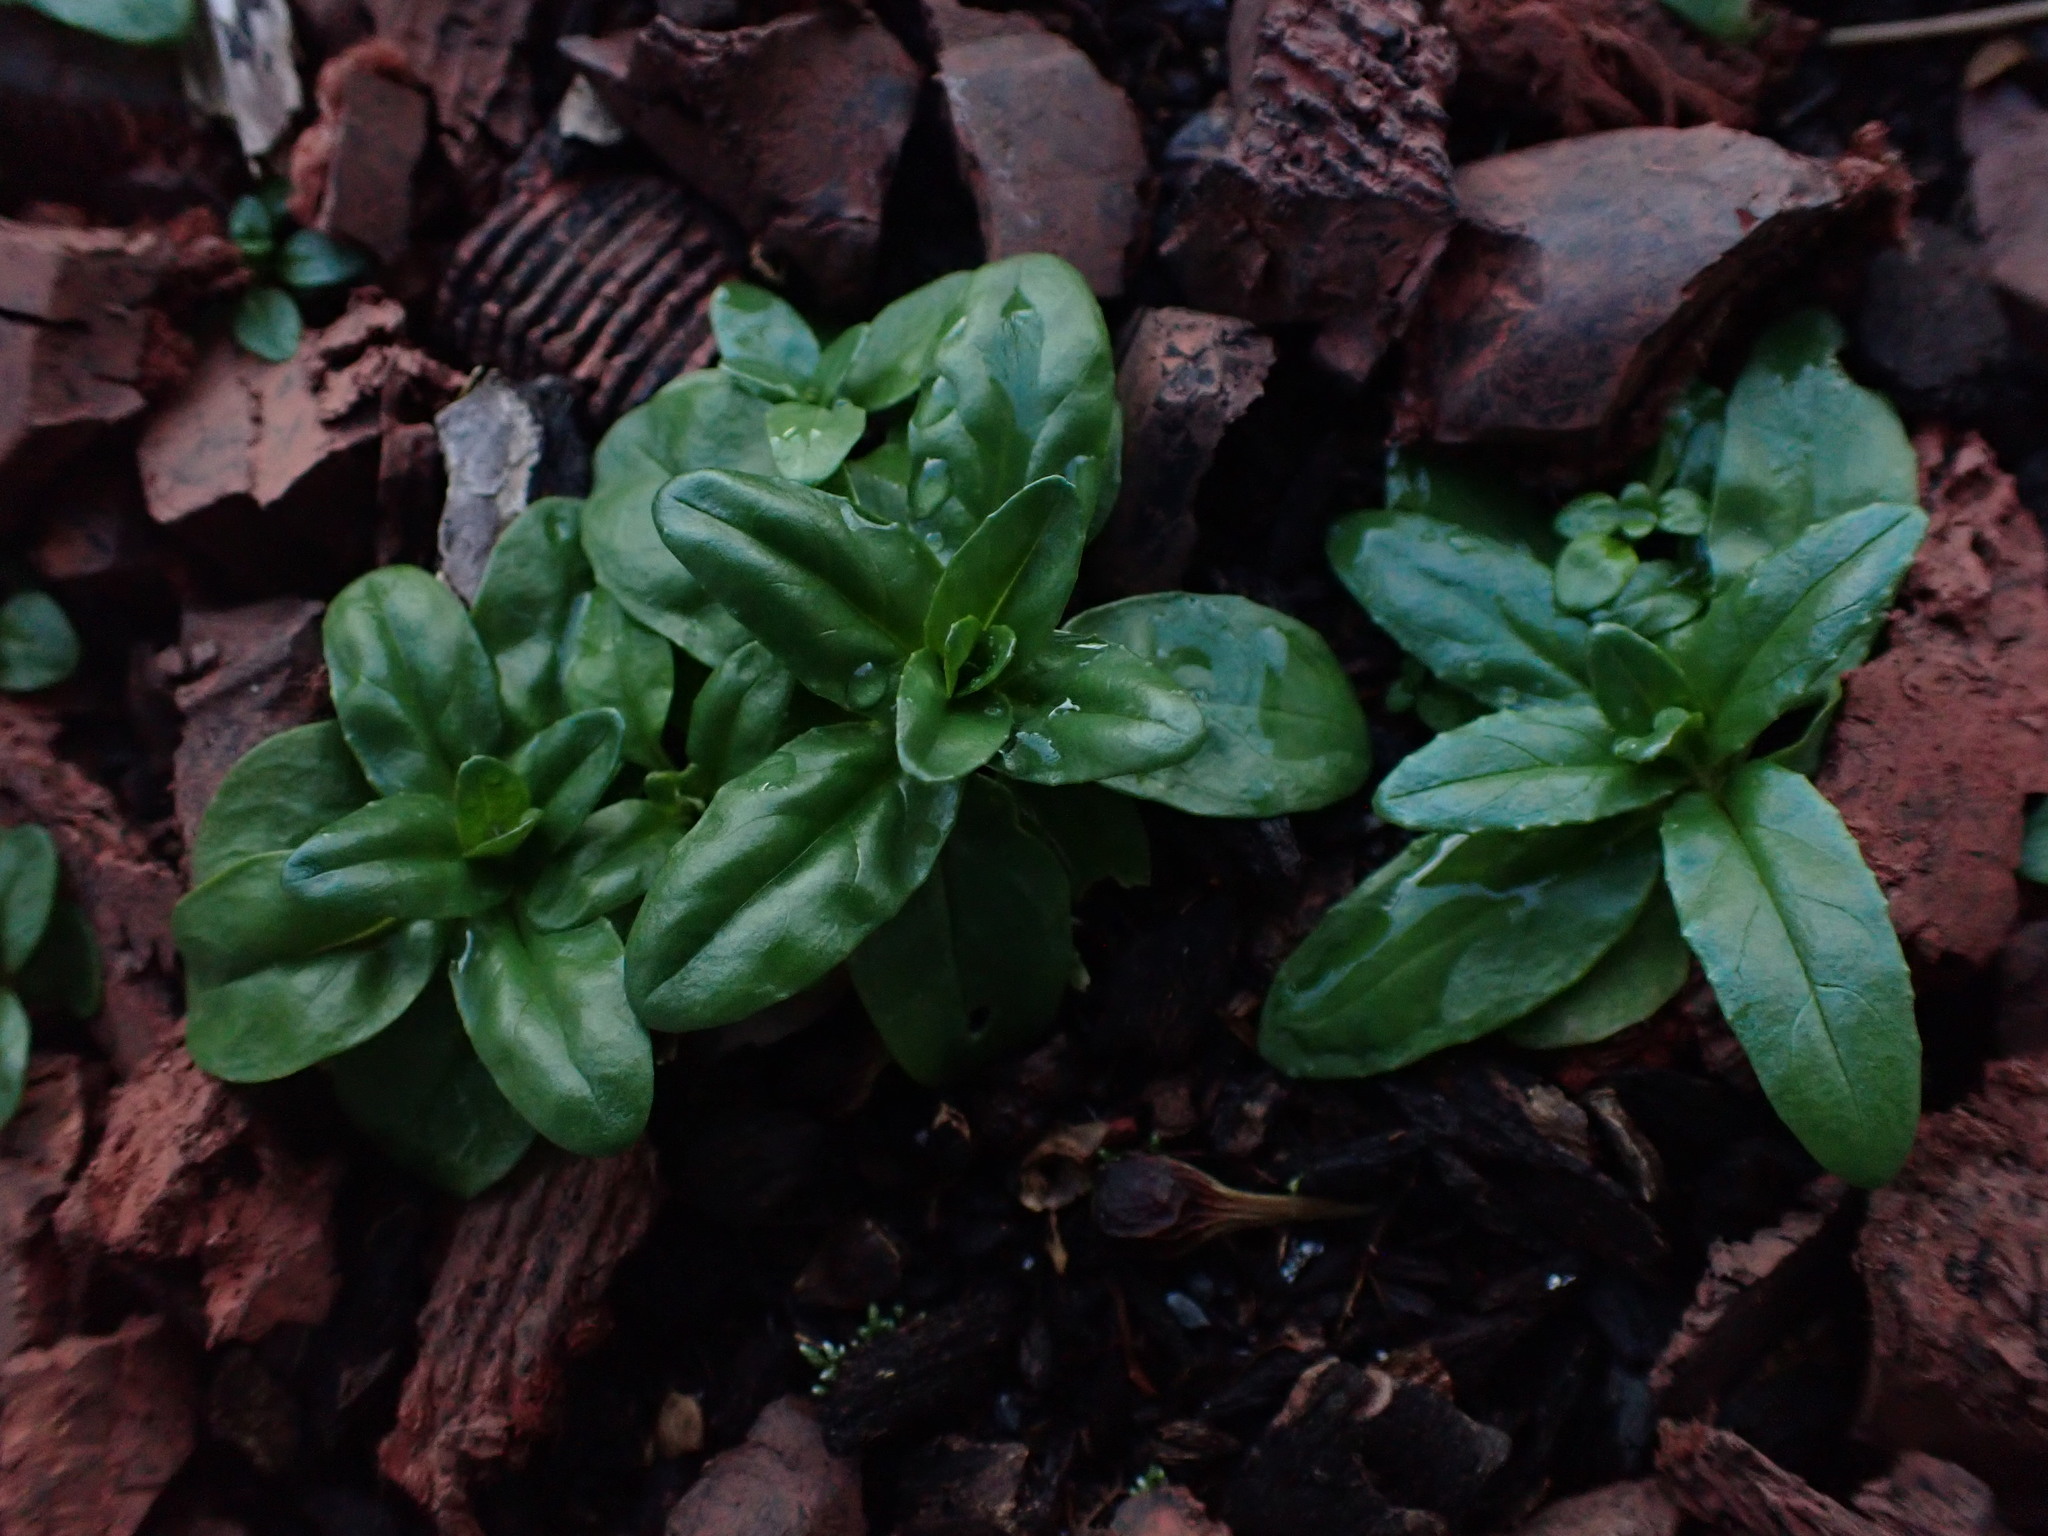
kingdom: Plantae
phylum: Tracheophyta
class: Magnoliopsida
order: Myrtales
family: Onagraceae
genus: Epilobium
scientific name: Epilobium ciliatum
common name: American willowherb
